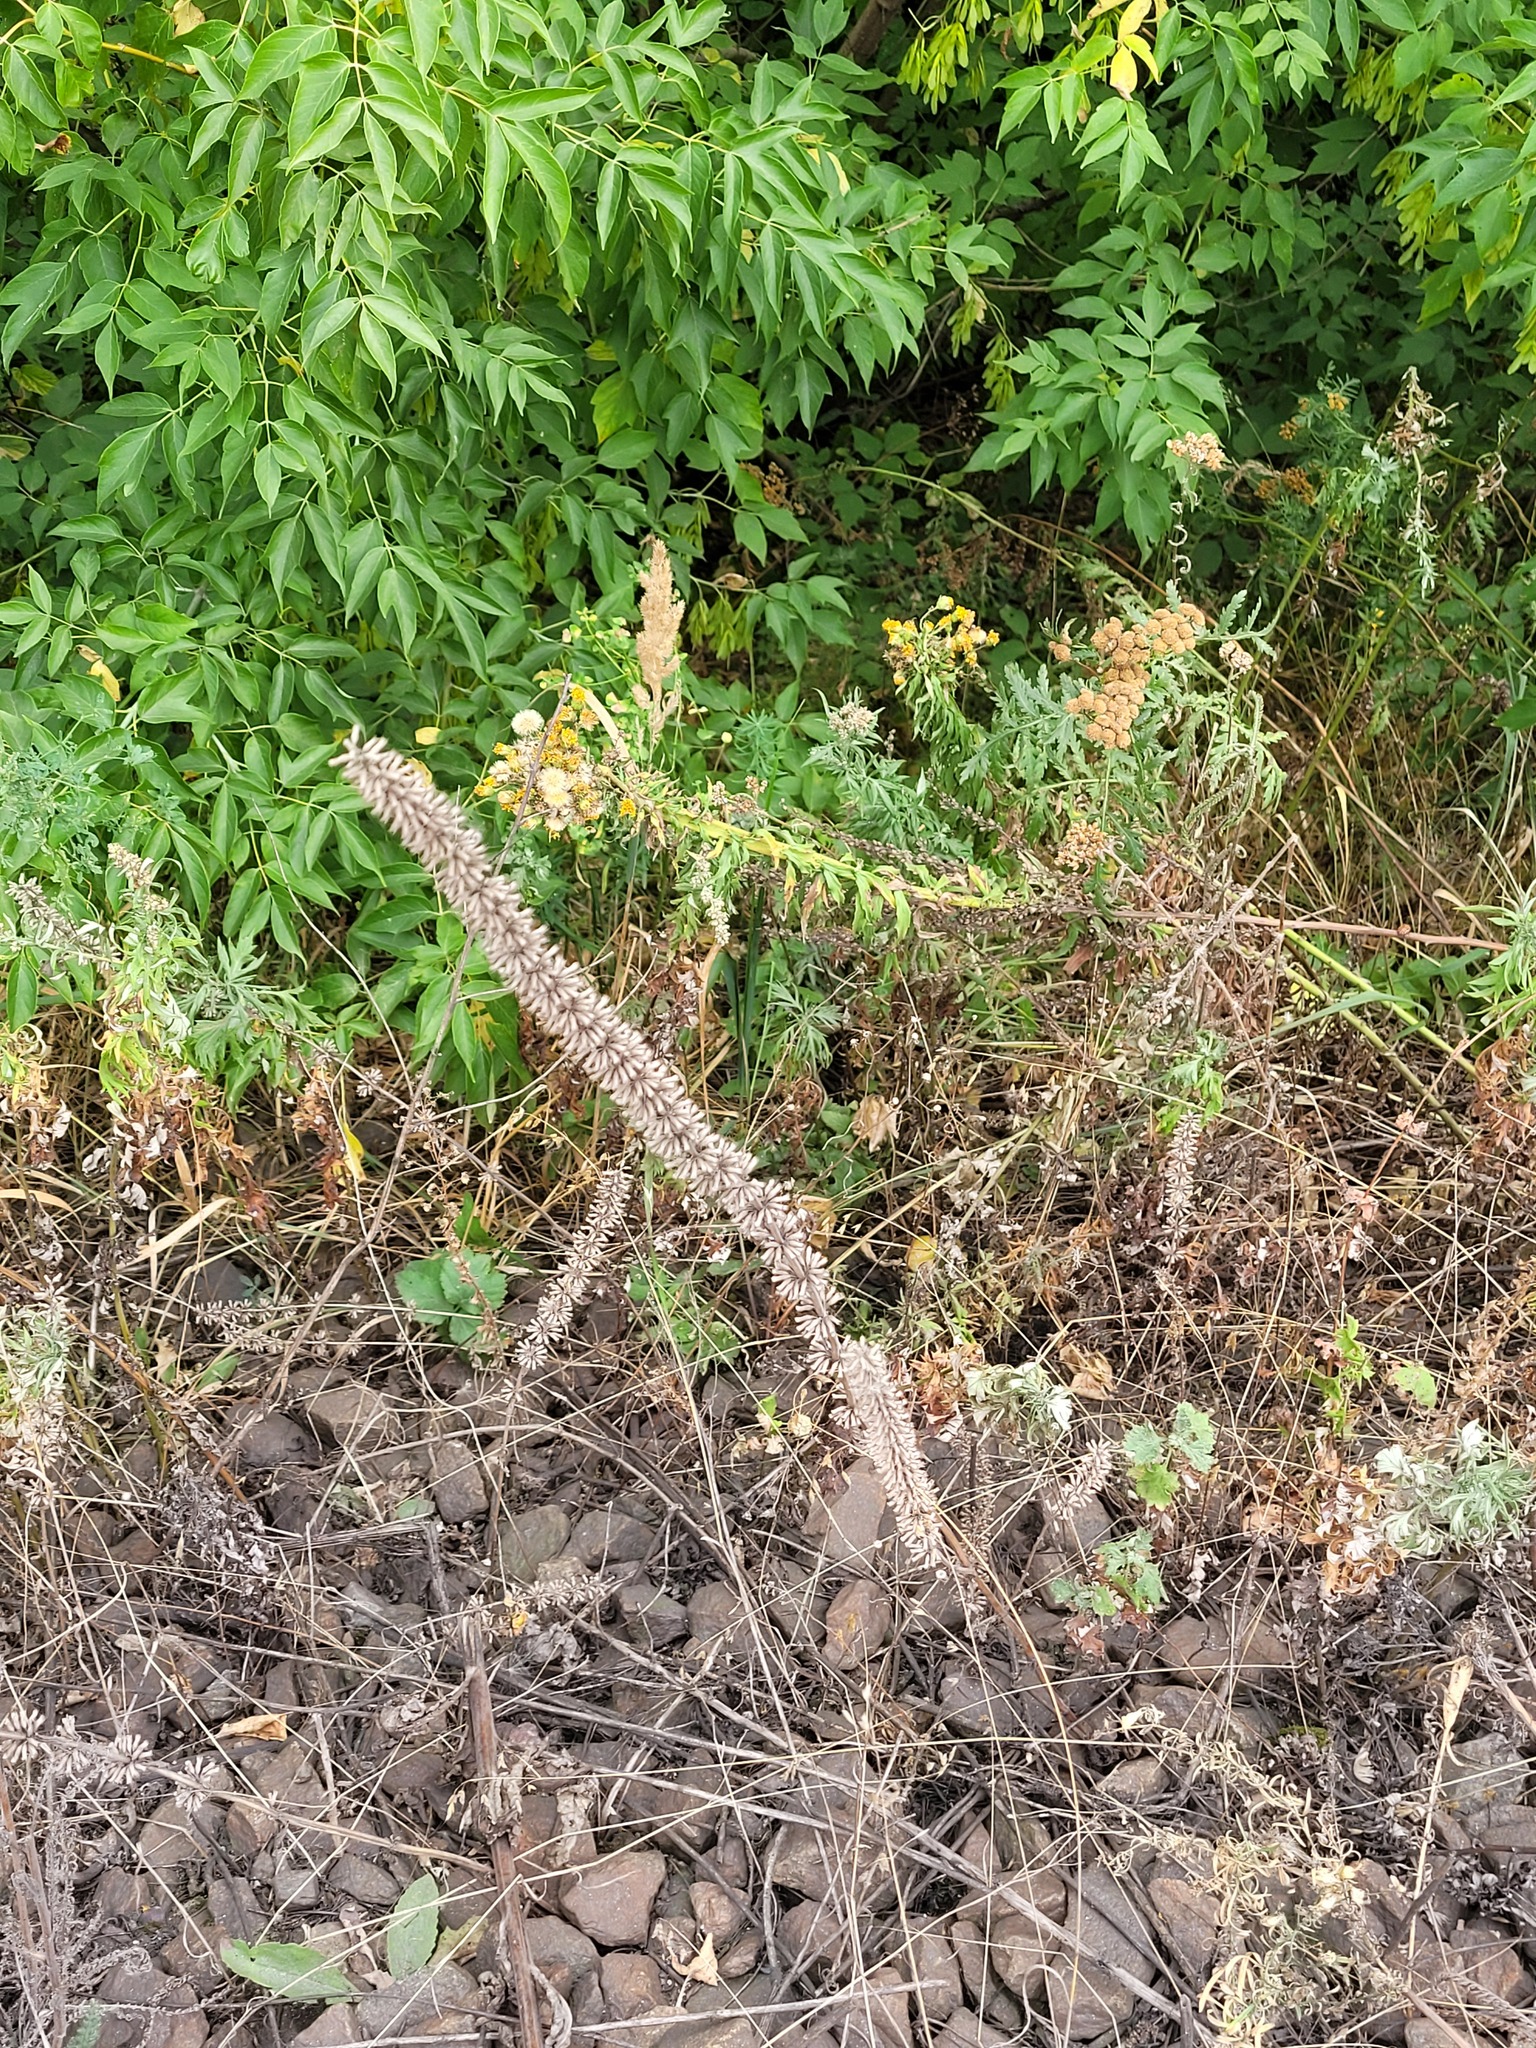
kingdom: Plantae
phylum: Tracheophyta
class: Magnoliopsida
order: Lamiales
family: Lamiaceae
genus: Dracocephalum
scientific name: Dracocephalum thymiflorum
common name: Thymeleaf dragonhead
